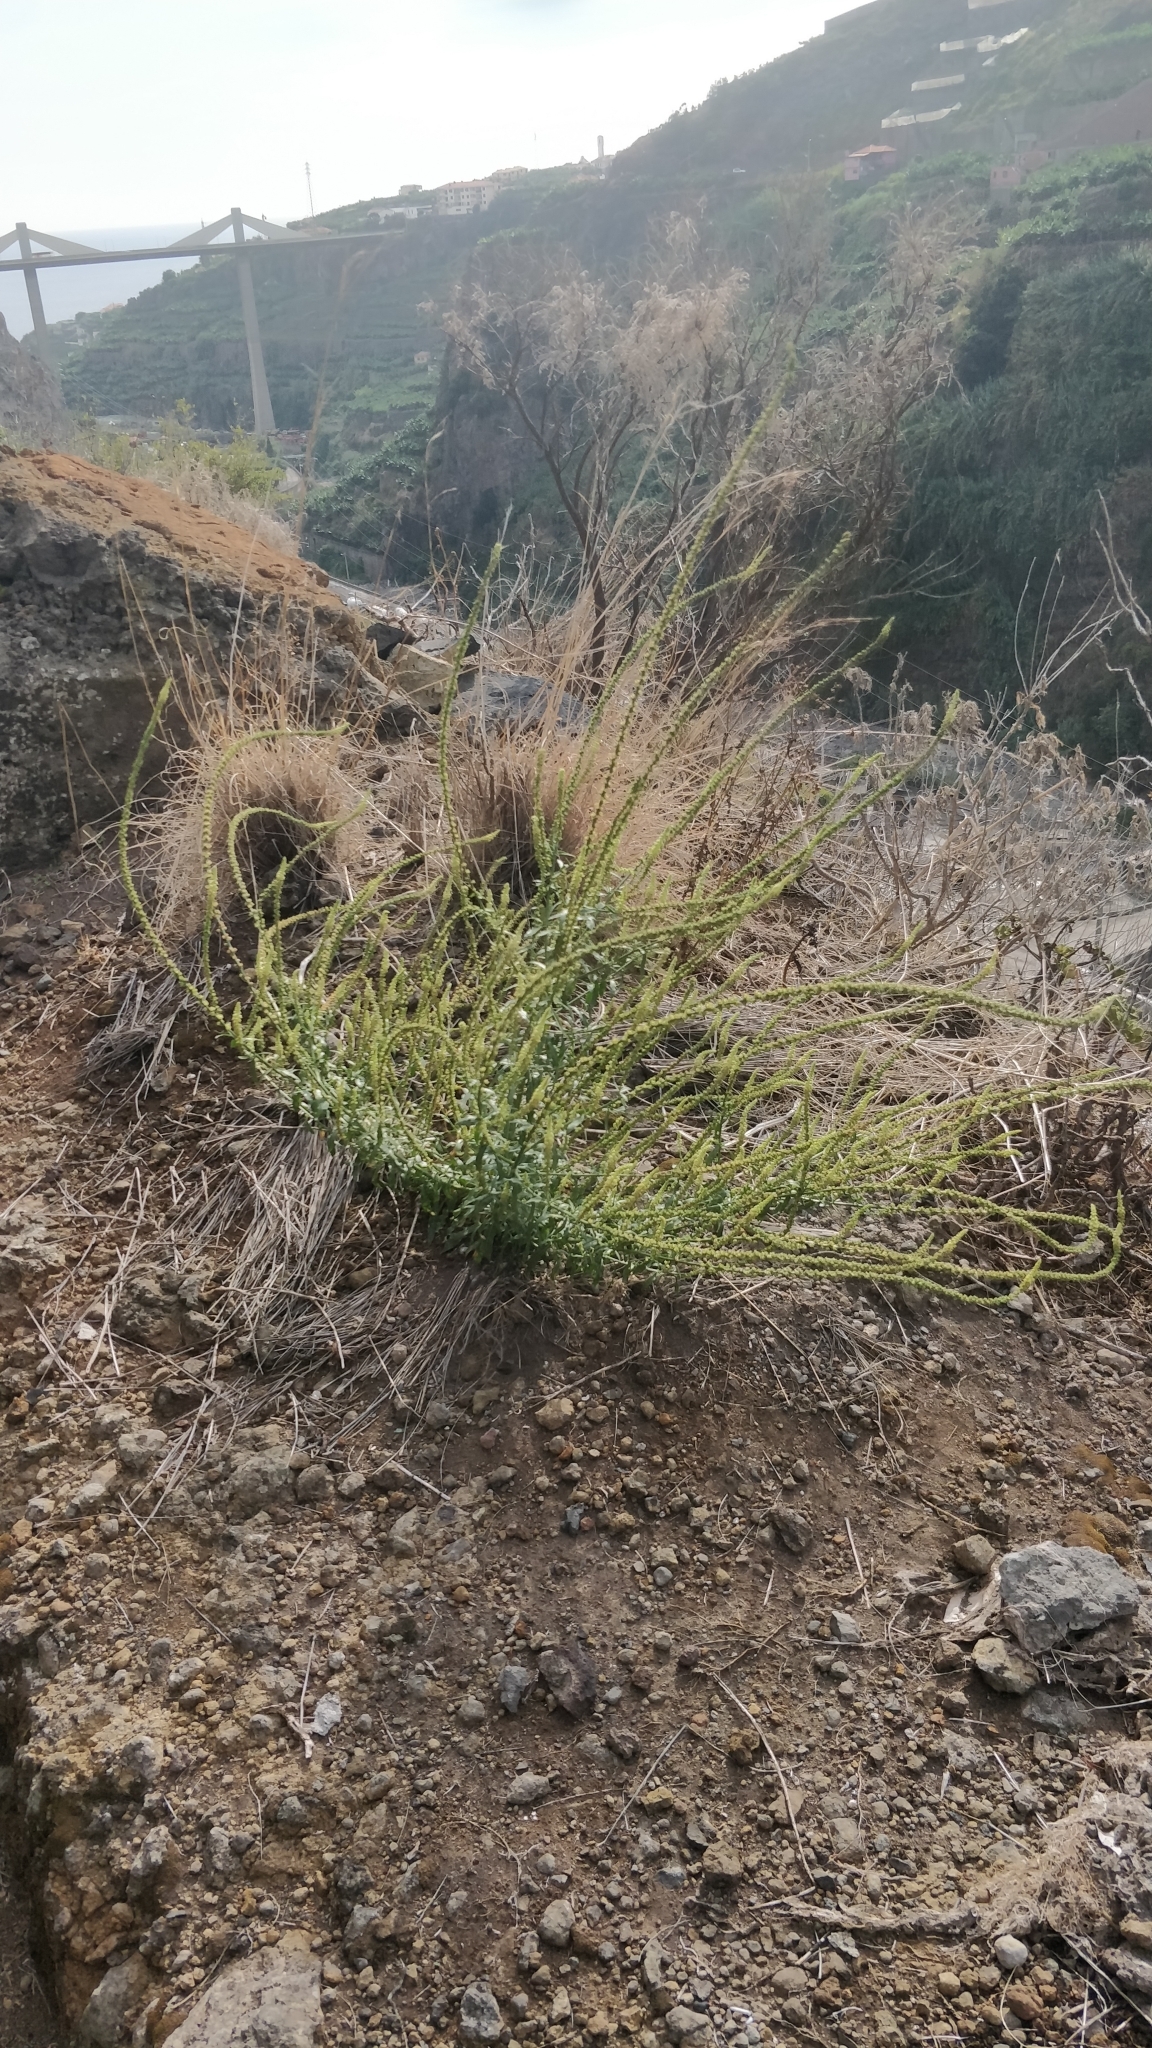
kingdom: Plantae
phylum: Tracheophyta
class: Magnoliopsida
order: Brassicales
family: Resedaceae
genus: Reseda
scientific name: Reseda luteola
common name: Weld
